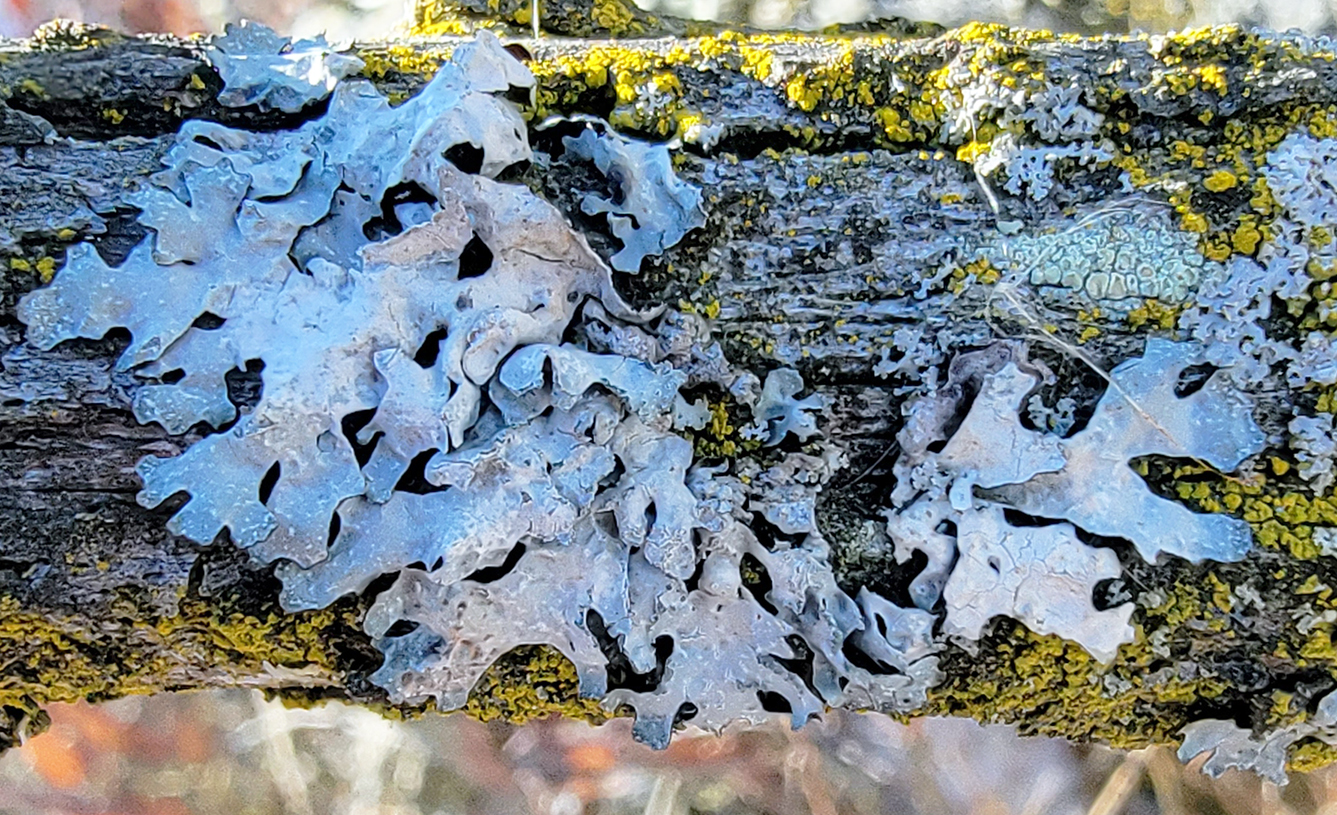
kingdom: Fungi
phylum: Ascomycota
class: Lecanoromycetes
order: Lecanorales
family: Parmeliaceae
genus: Parmelia
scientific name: Parmelia sulcata
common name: Netted shield lichen
